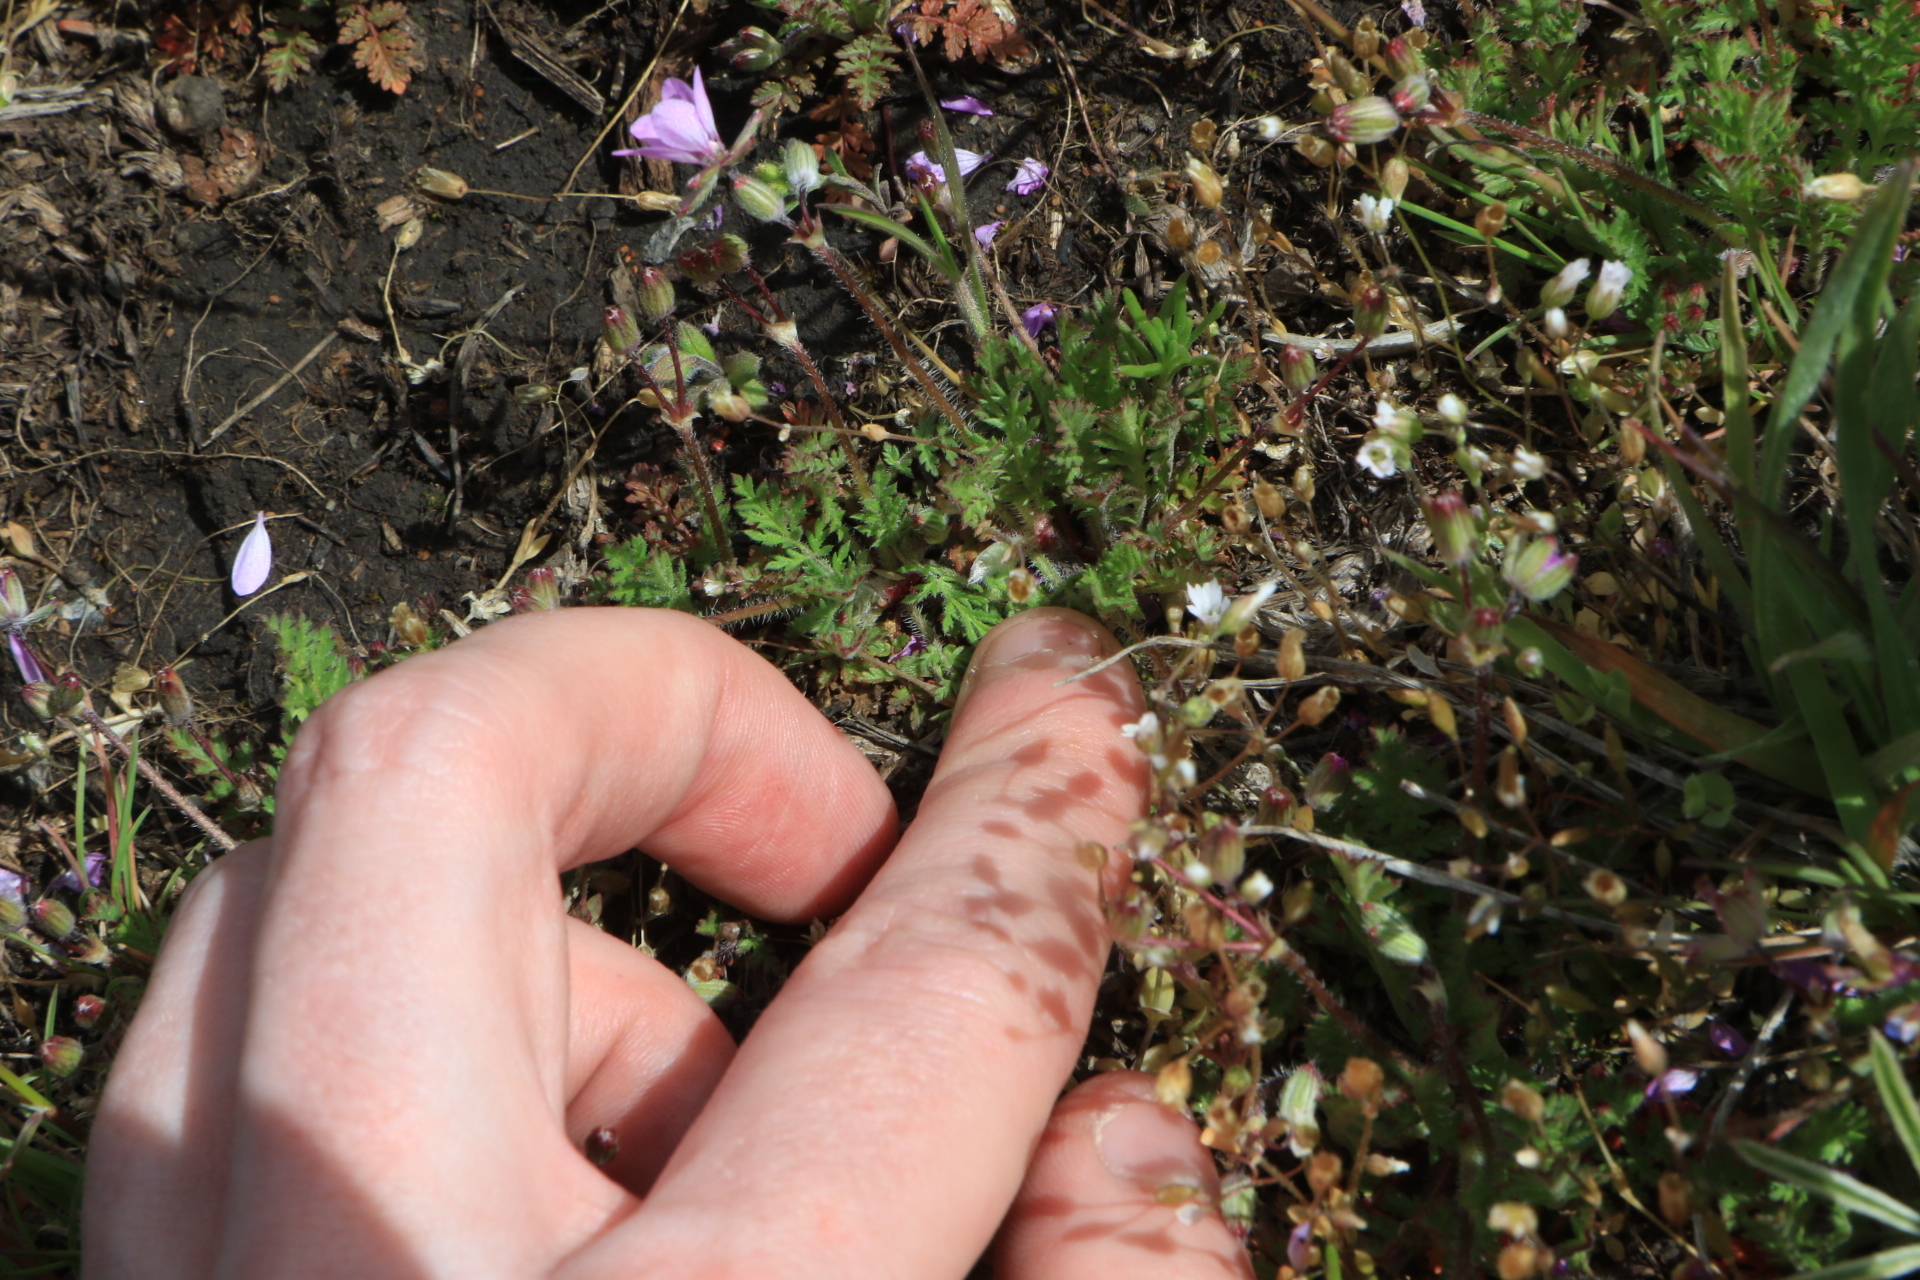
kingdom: Plantae
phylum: Tracheophyta
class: Magnoliopsida
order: Geraniales
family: Geraniaceae
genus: Erodium
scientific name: Erodium cicutarium
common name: Common stork's-bill
